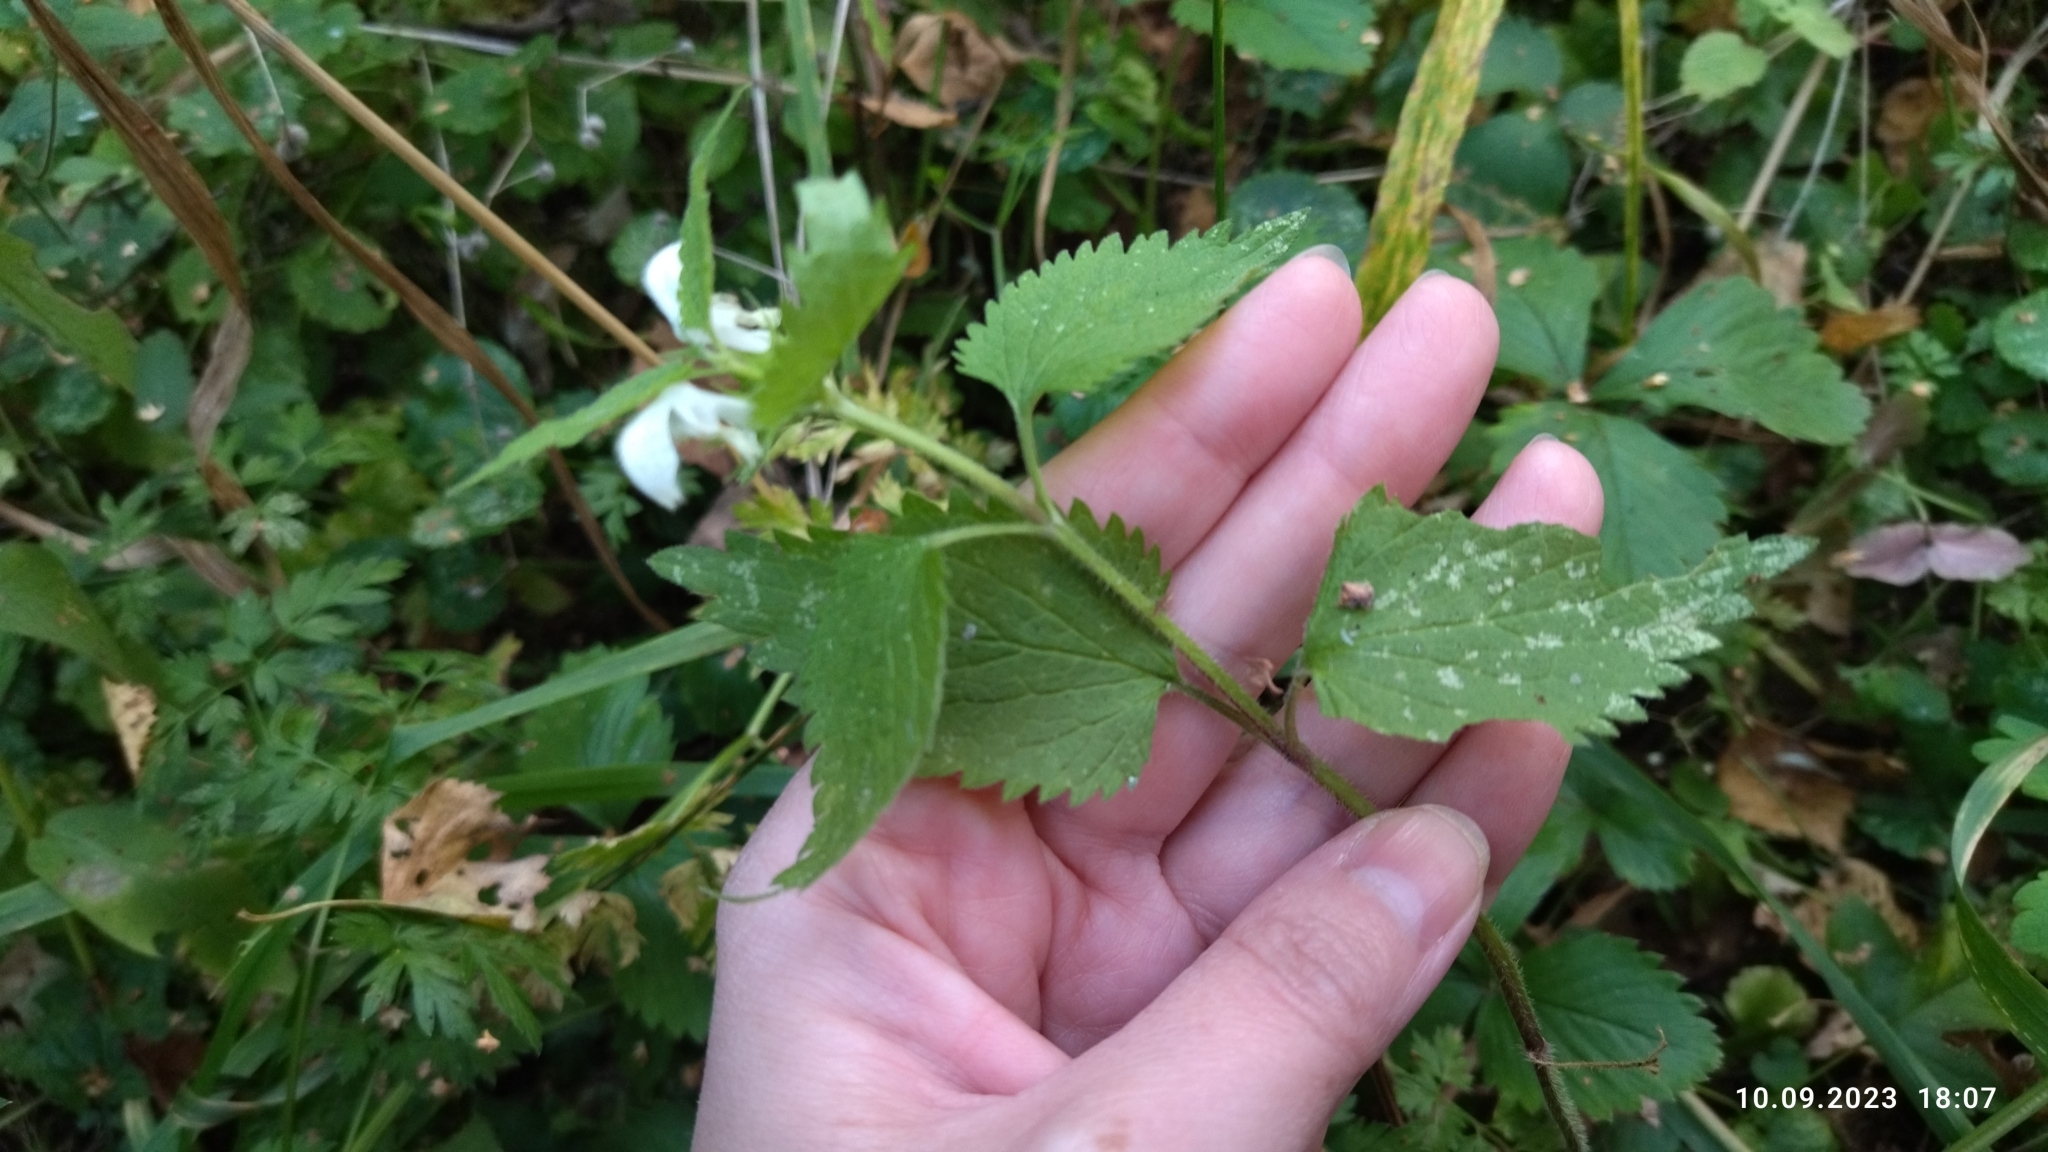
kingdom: Plantae
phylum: Tracheophyta
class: Magnoliopsida
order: Lamiales
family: Lamiaceae
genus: Lamium
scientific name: Lamium album
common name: White dead-nettle
